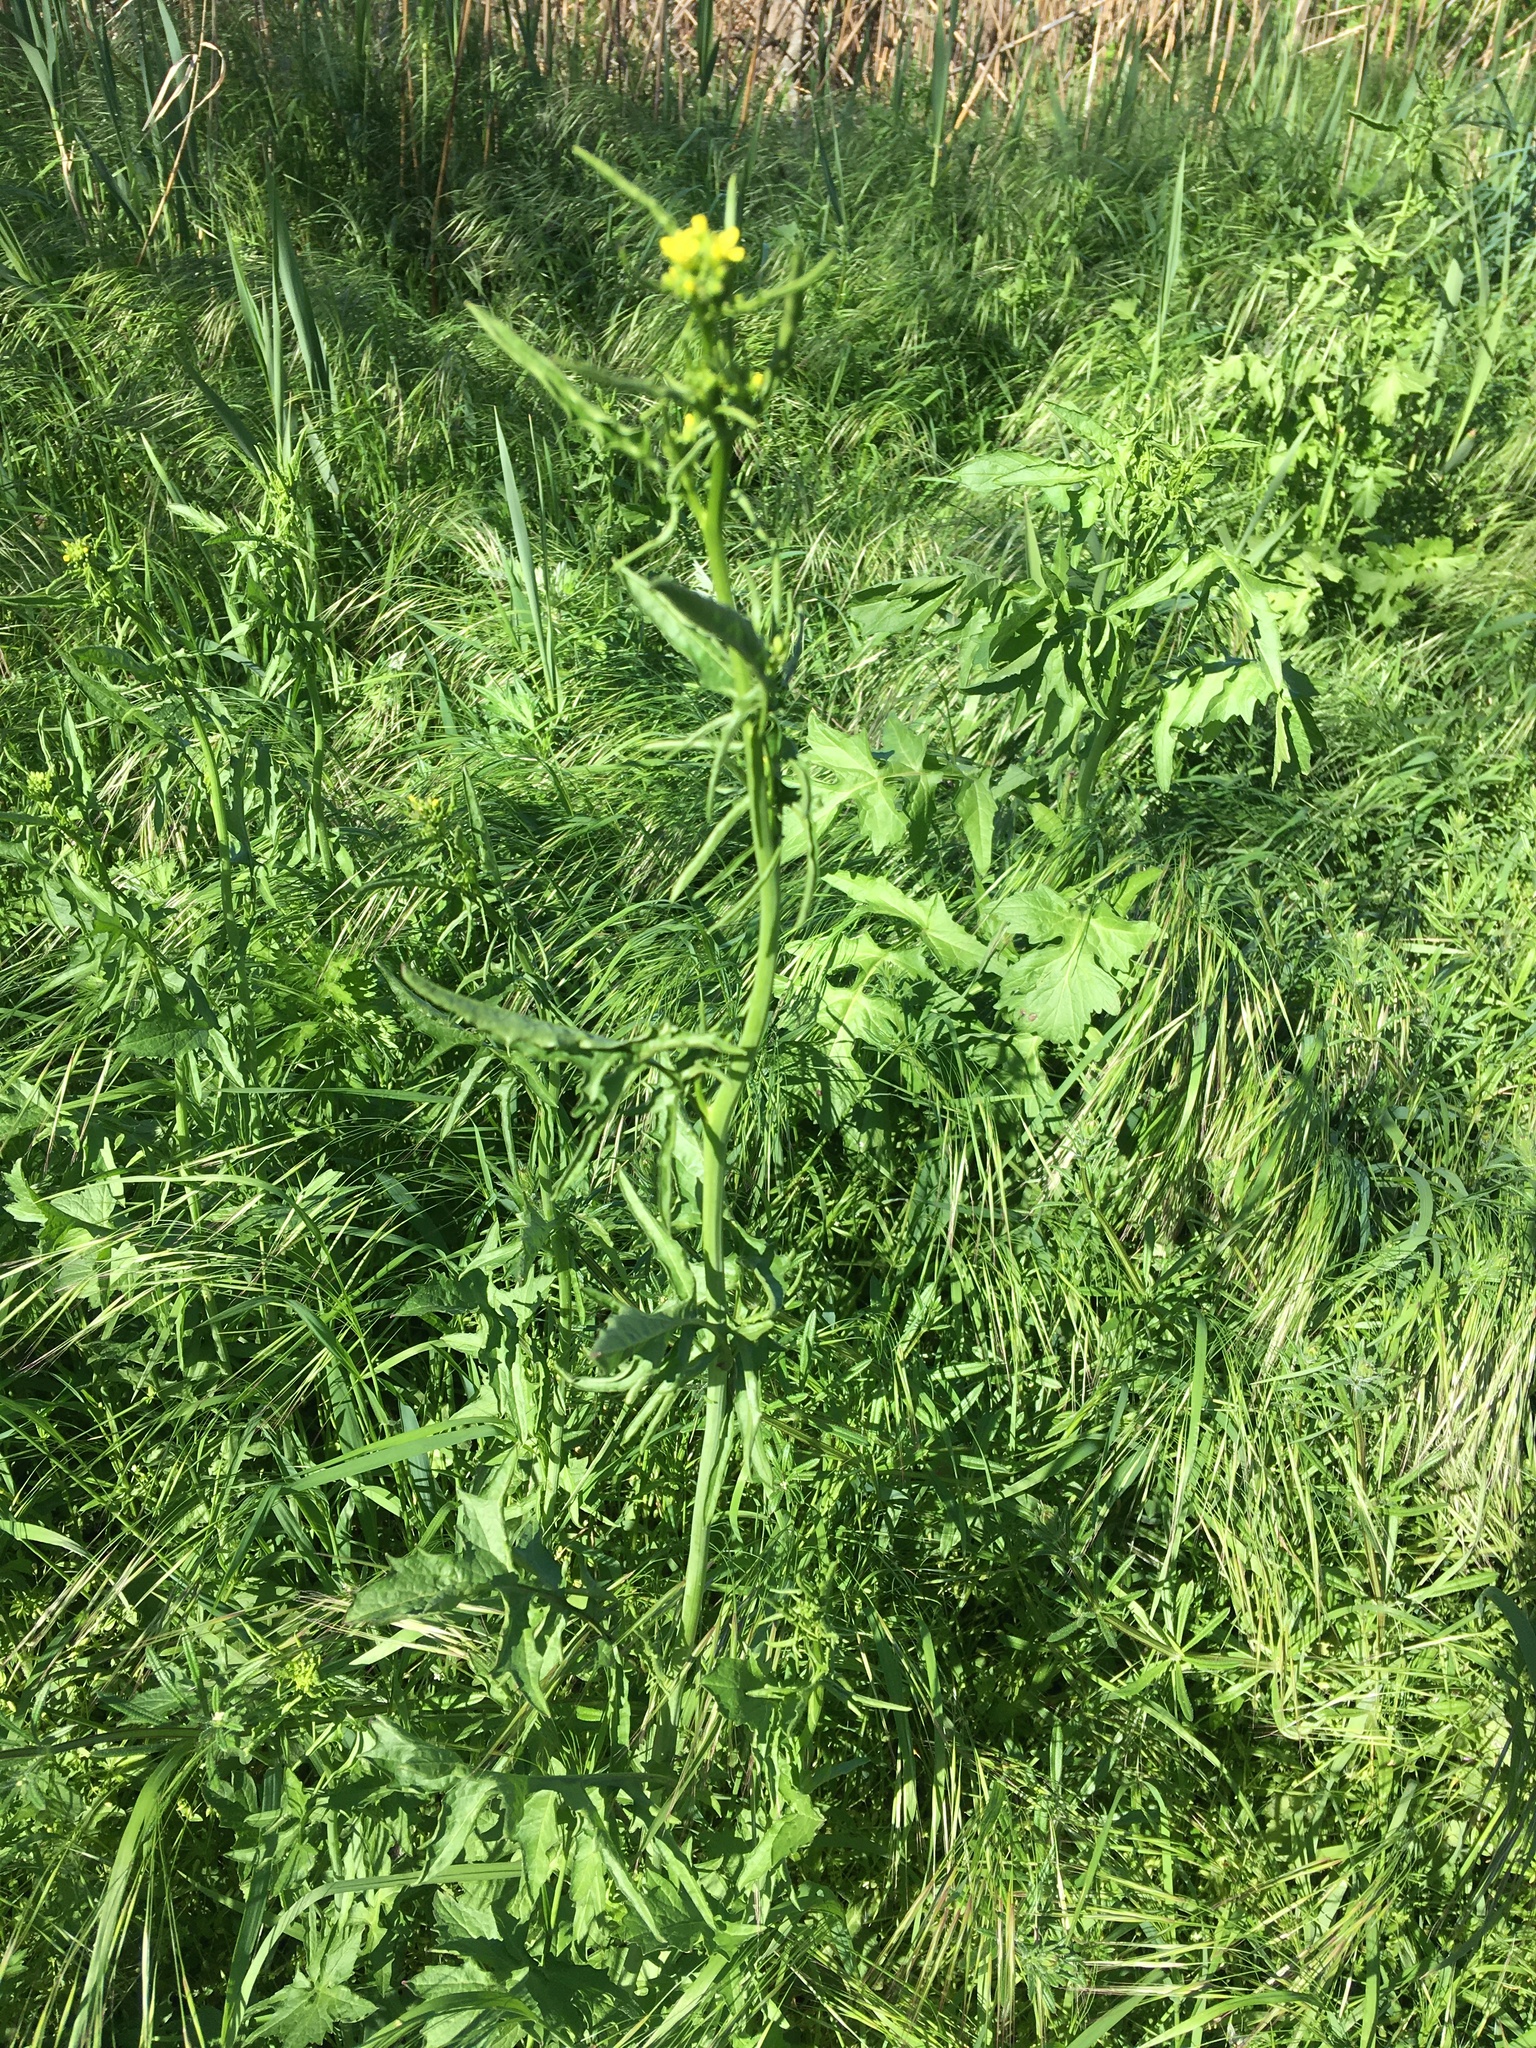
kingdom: Plantae
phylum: Tracheophyta
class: Magnoliopsida
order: Brassicales
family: Brassicaceae
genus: Sisymbrium
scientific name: Sisymbrium officinale
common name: Hedge mustard
